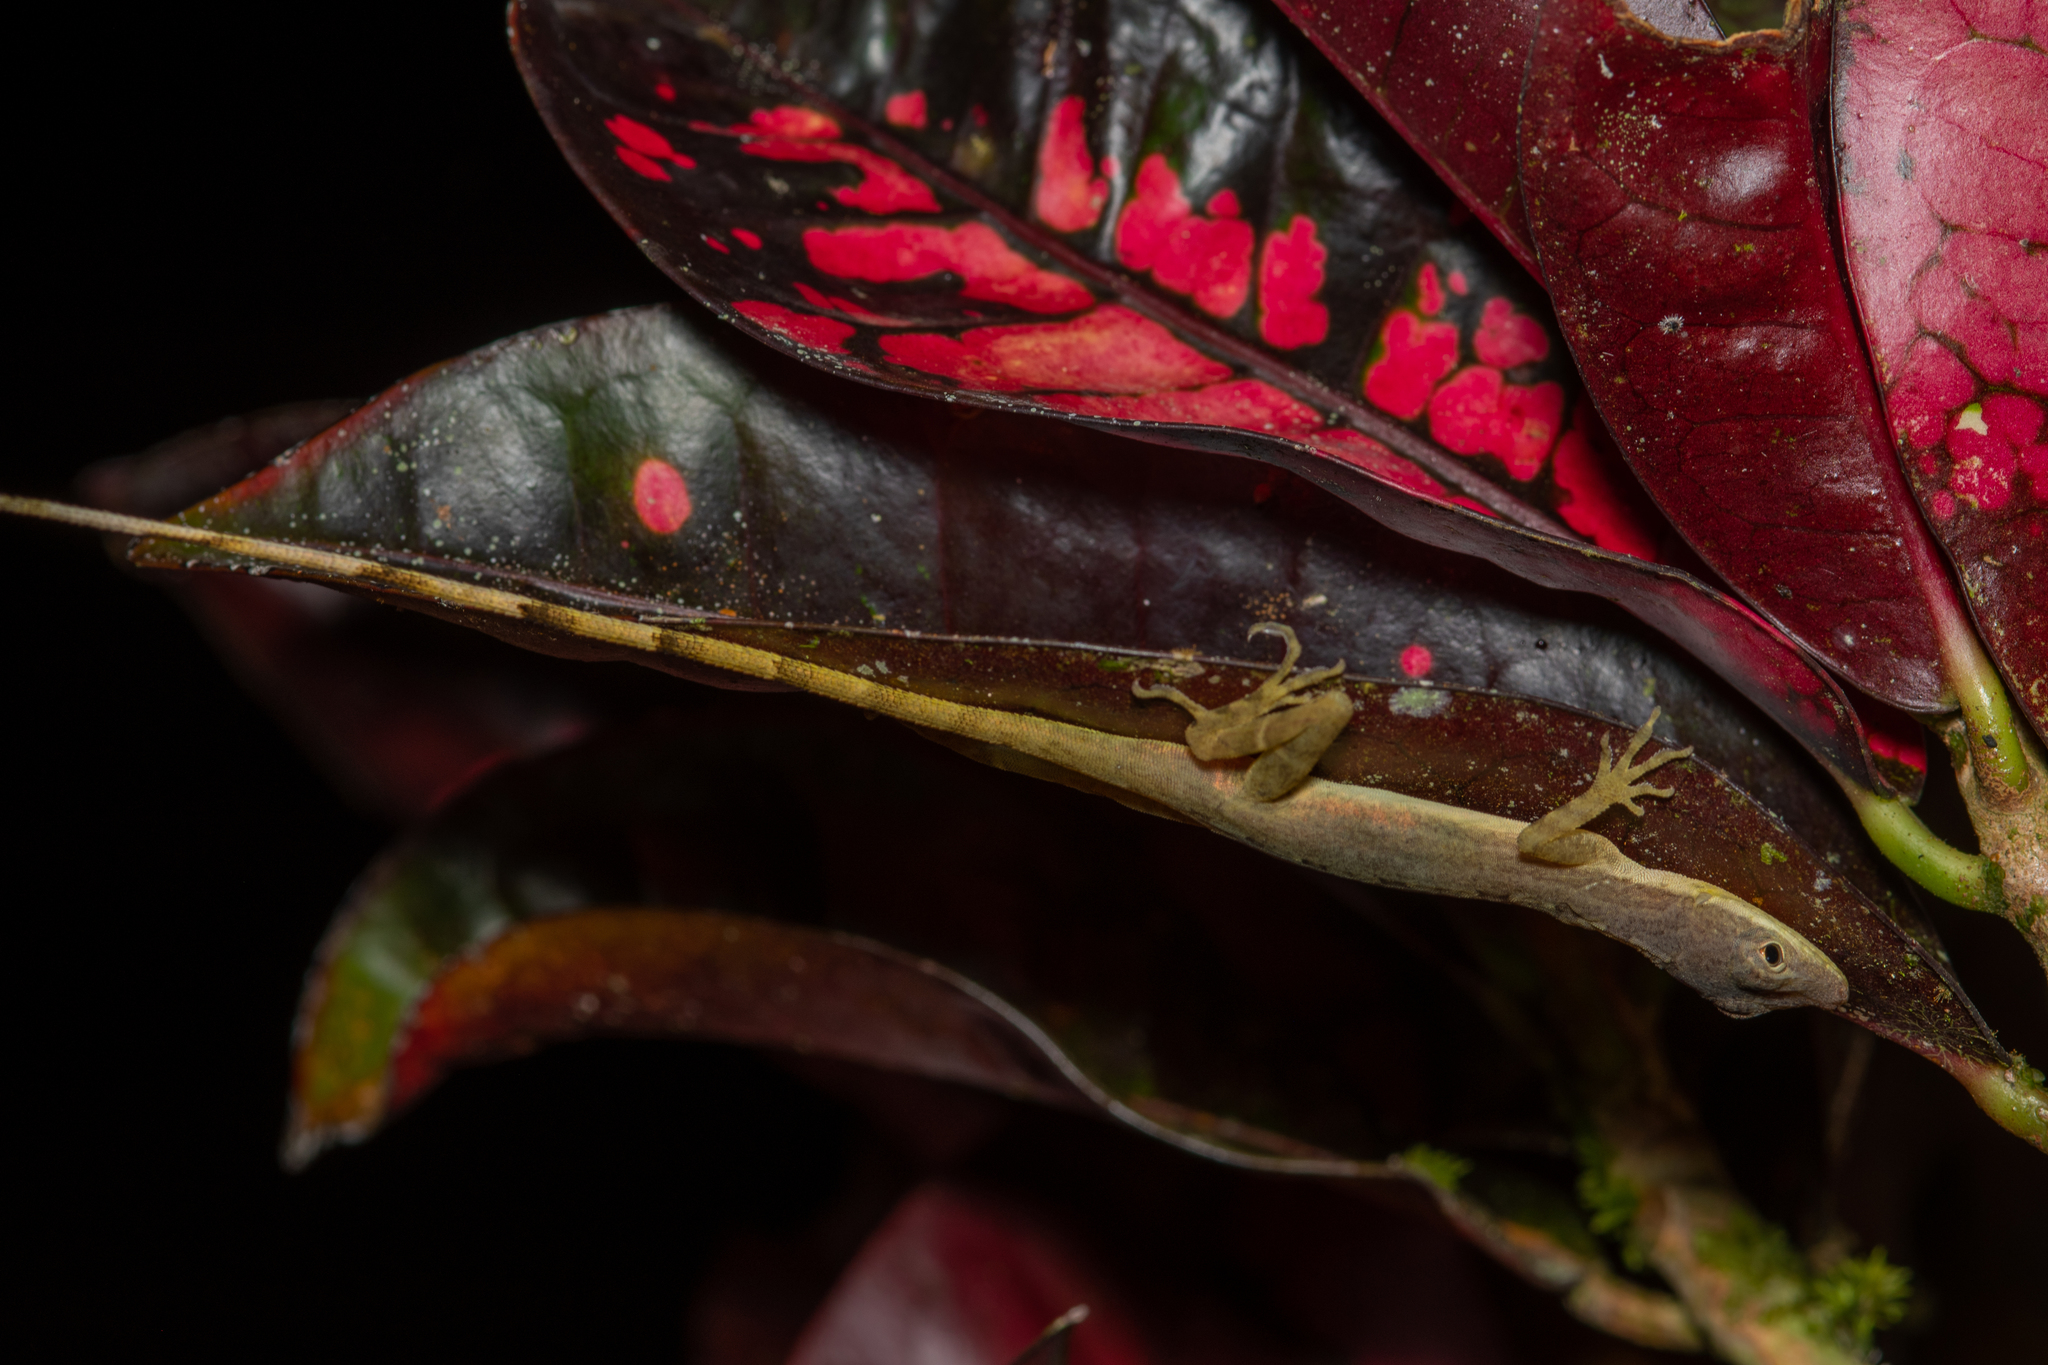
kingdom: Animalia
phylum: Chordata
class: Squamata
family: Dactyloidae
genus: Anolis
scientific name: Anolis limifrons
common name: Border anole
